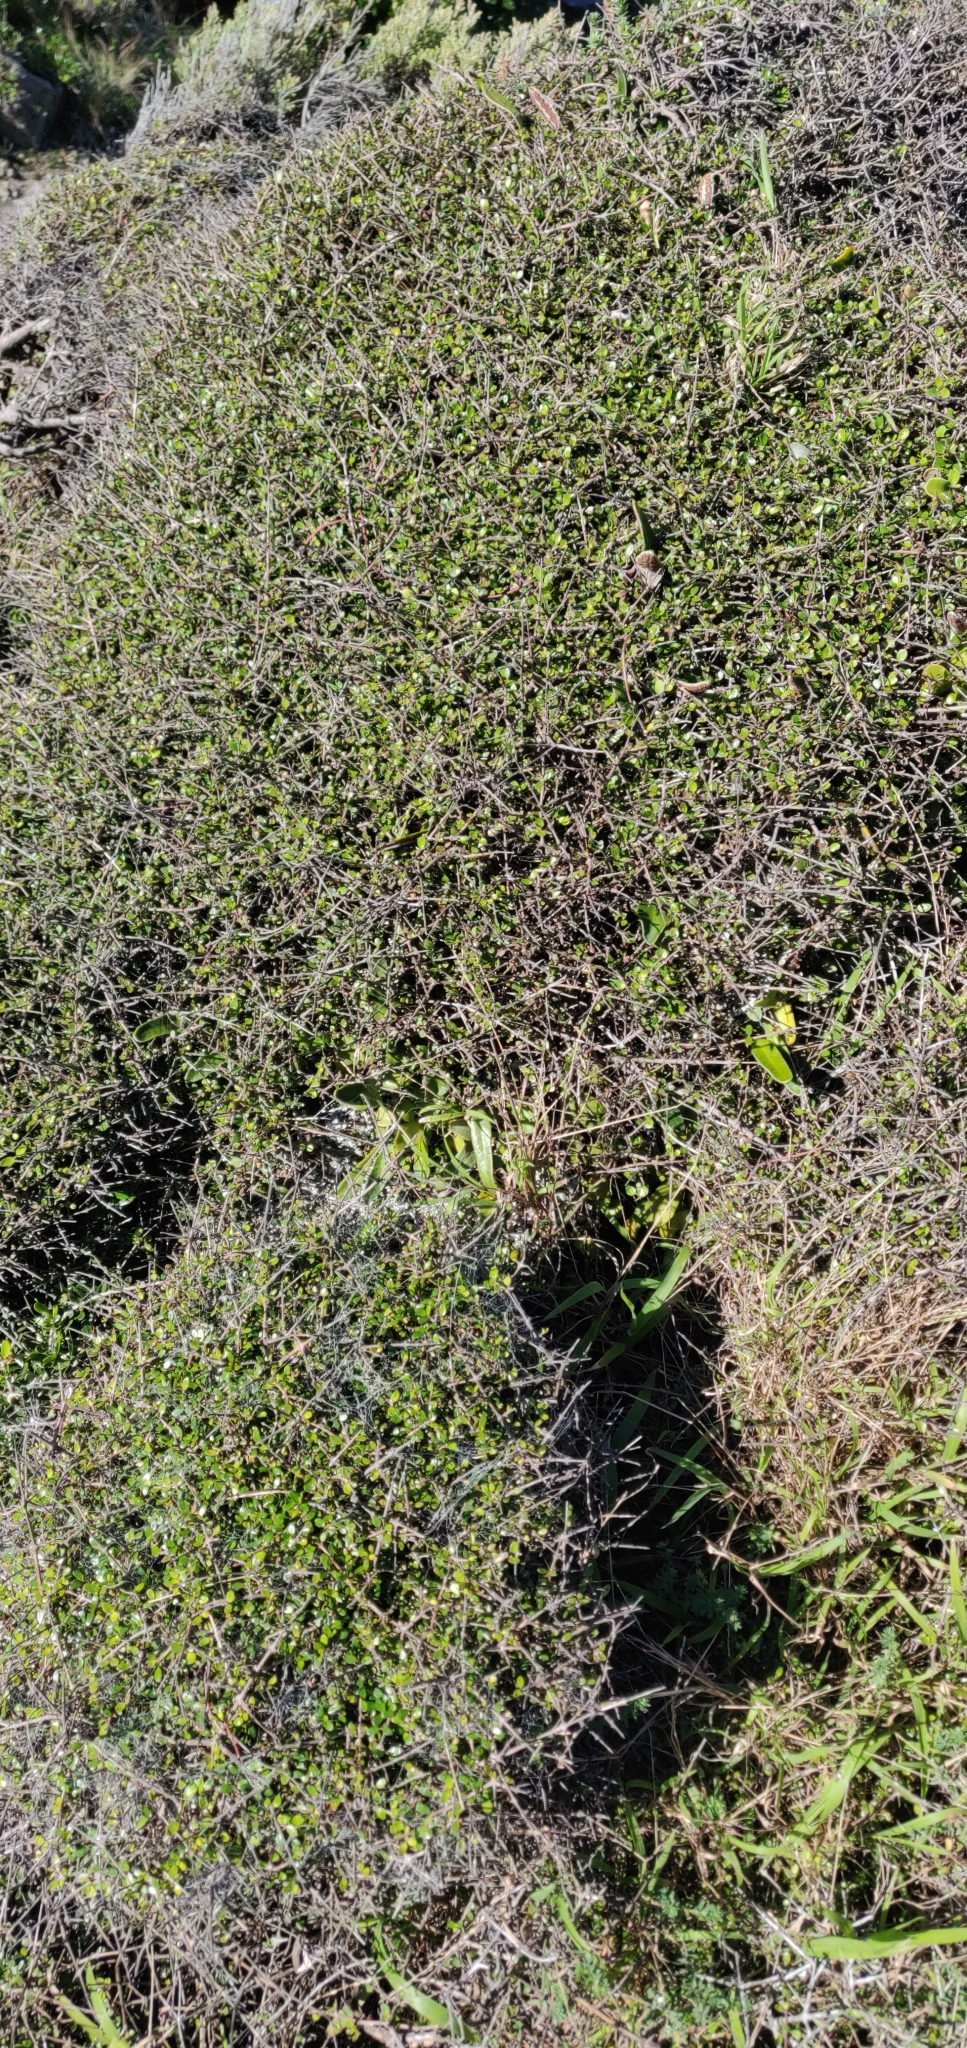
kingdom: Plantae
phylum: Tracheophyta
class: Magnoliopsida
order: Gentianales
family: Rubiaceae
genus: Coprosma
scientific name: Coprosma propinqua
